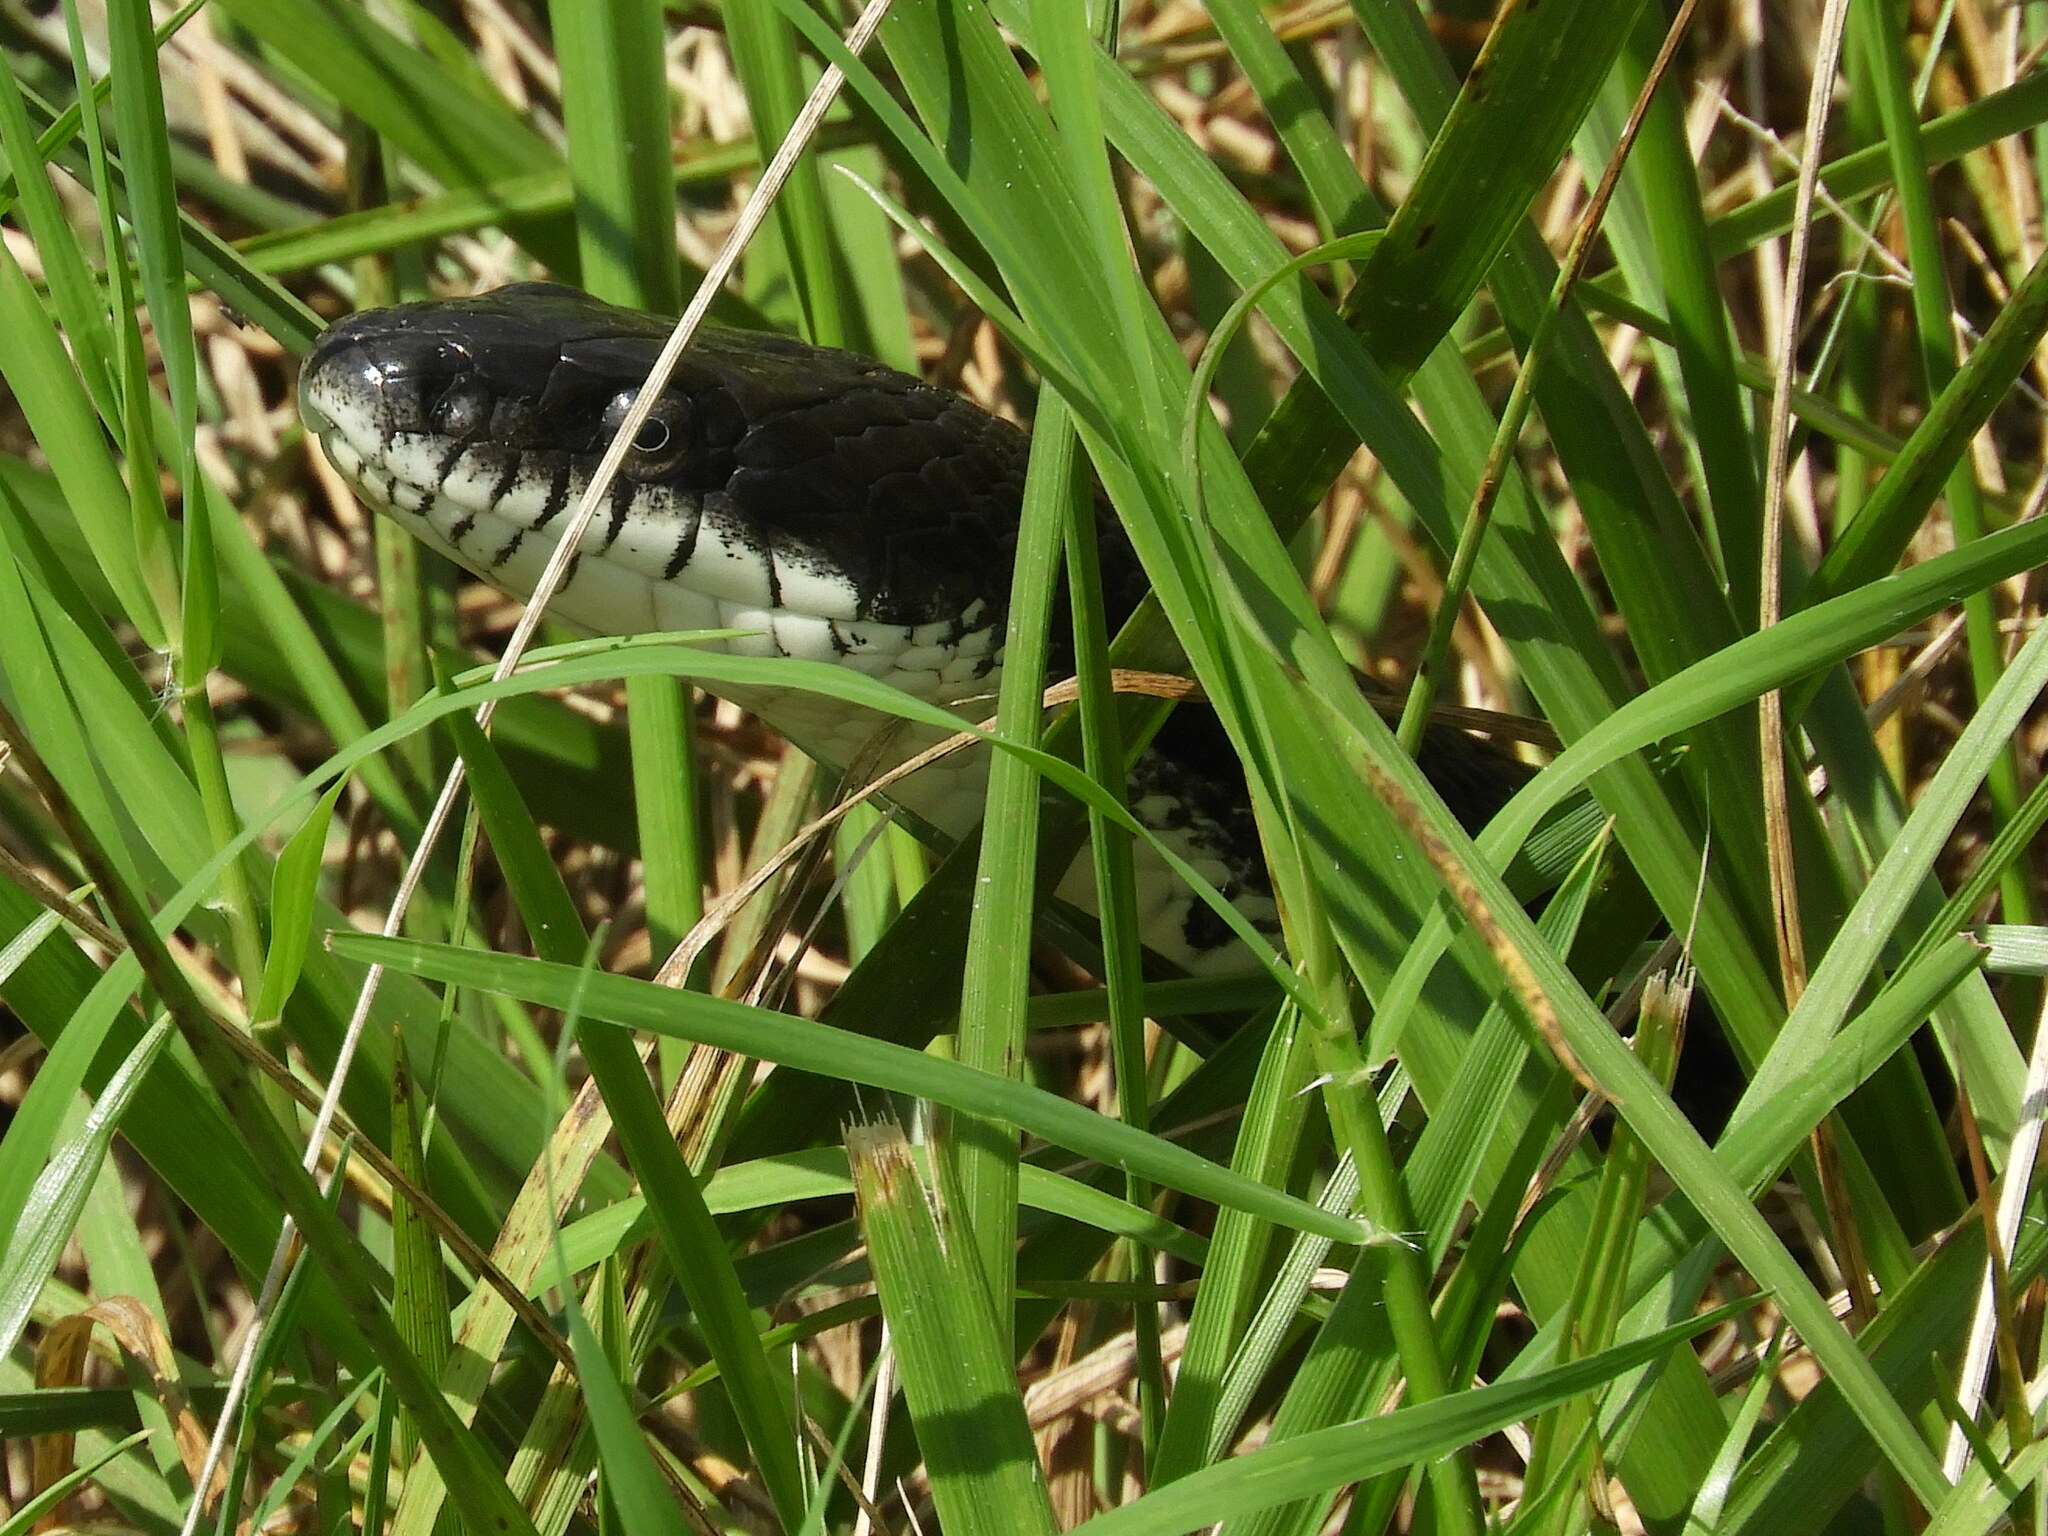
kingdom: Animalia
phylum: Chordata
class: Squamata
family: Colubridae
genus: Pantherophis
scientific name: Pantherophis alleghaniensis
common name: Eastern rat snake
